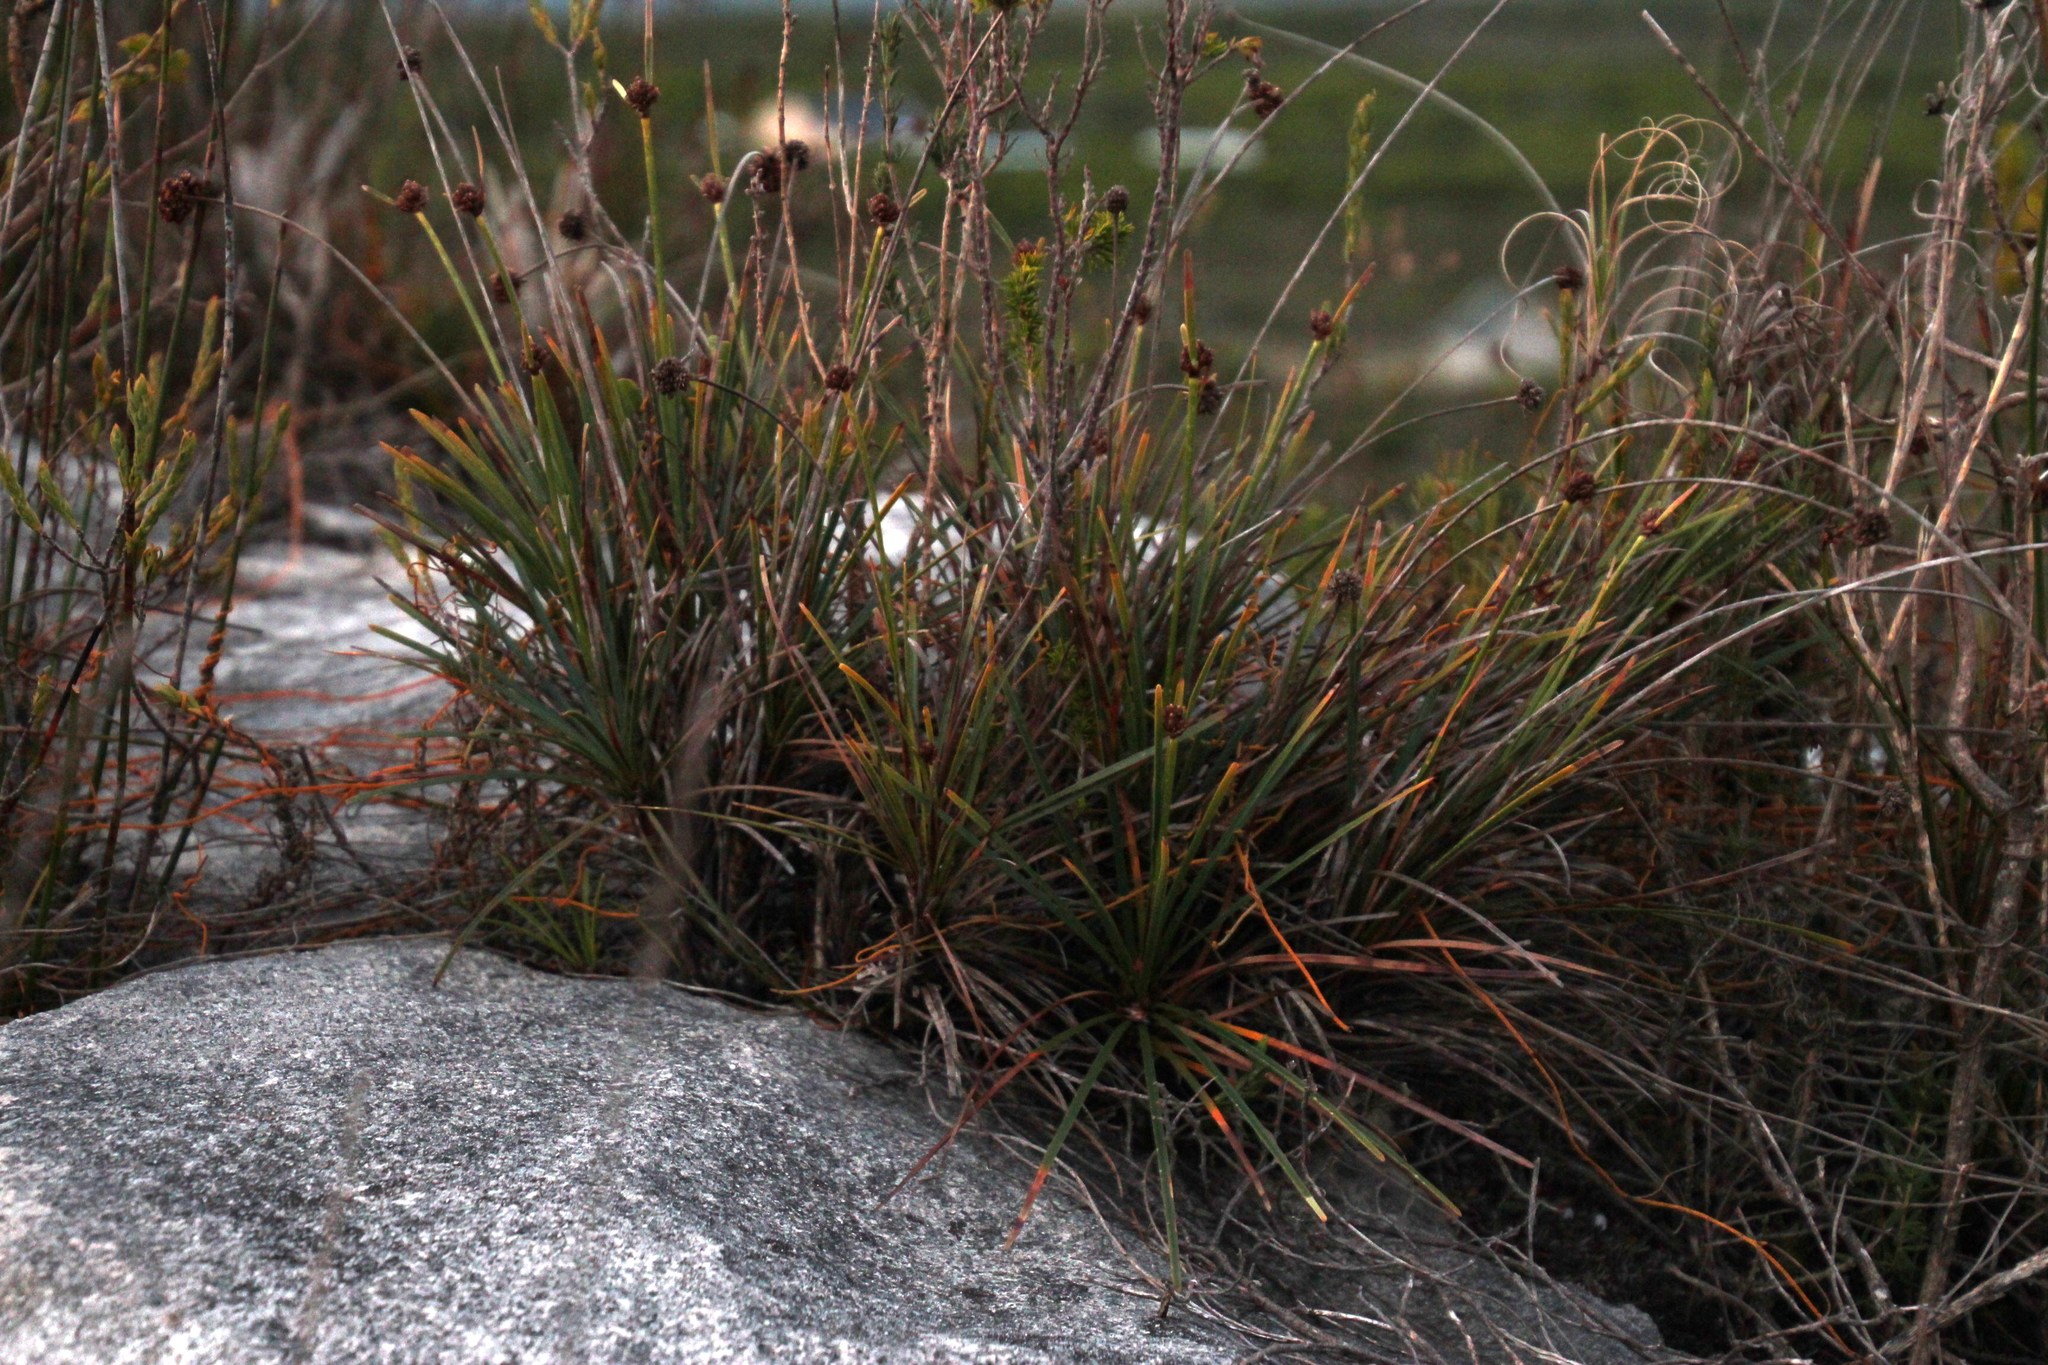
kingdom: Plantae
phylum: Tracheophyta
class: Liliopsida
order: Poales
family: Cyperaceae
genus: Ficinia
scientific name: Ficinia praemorsa
